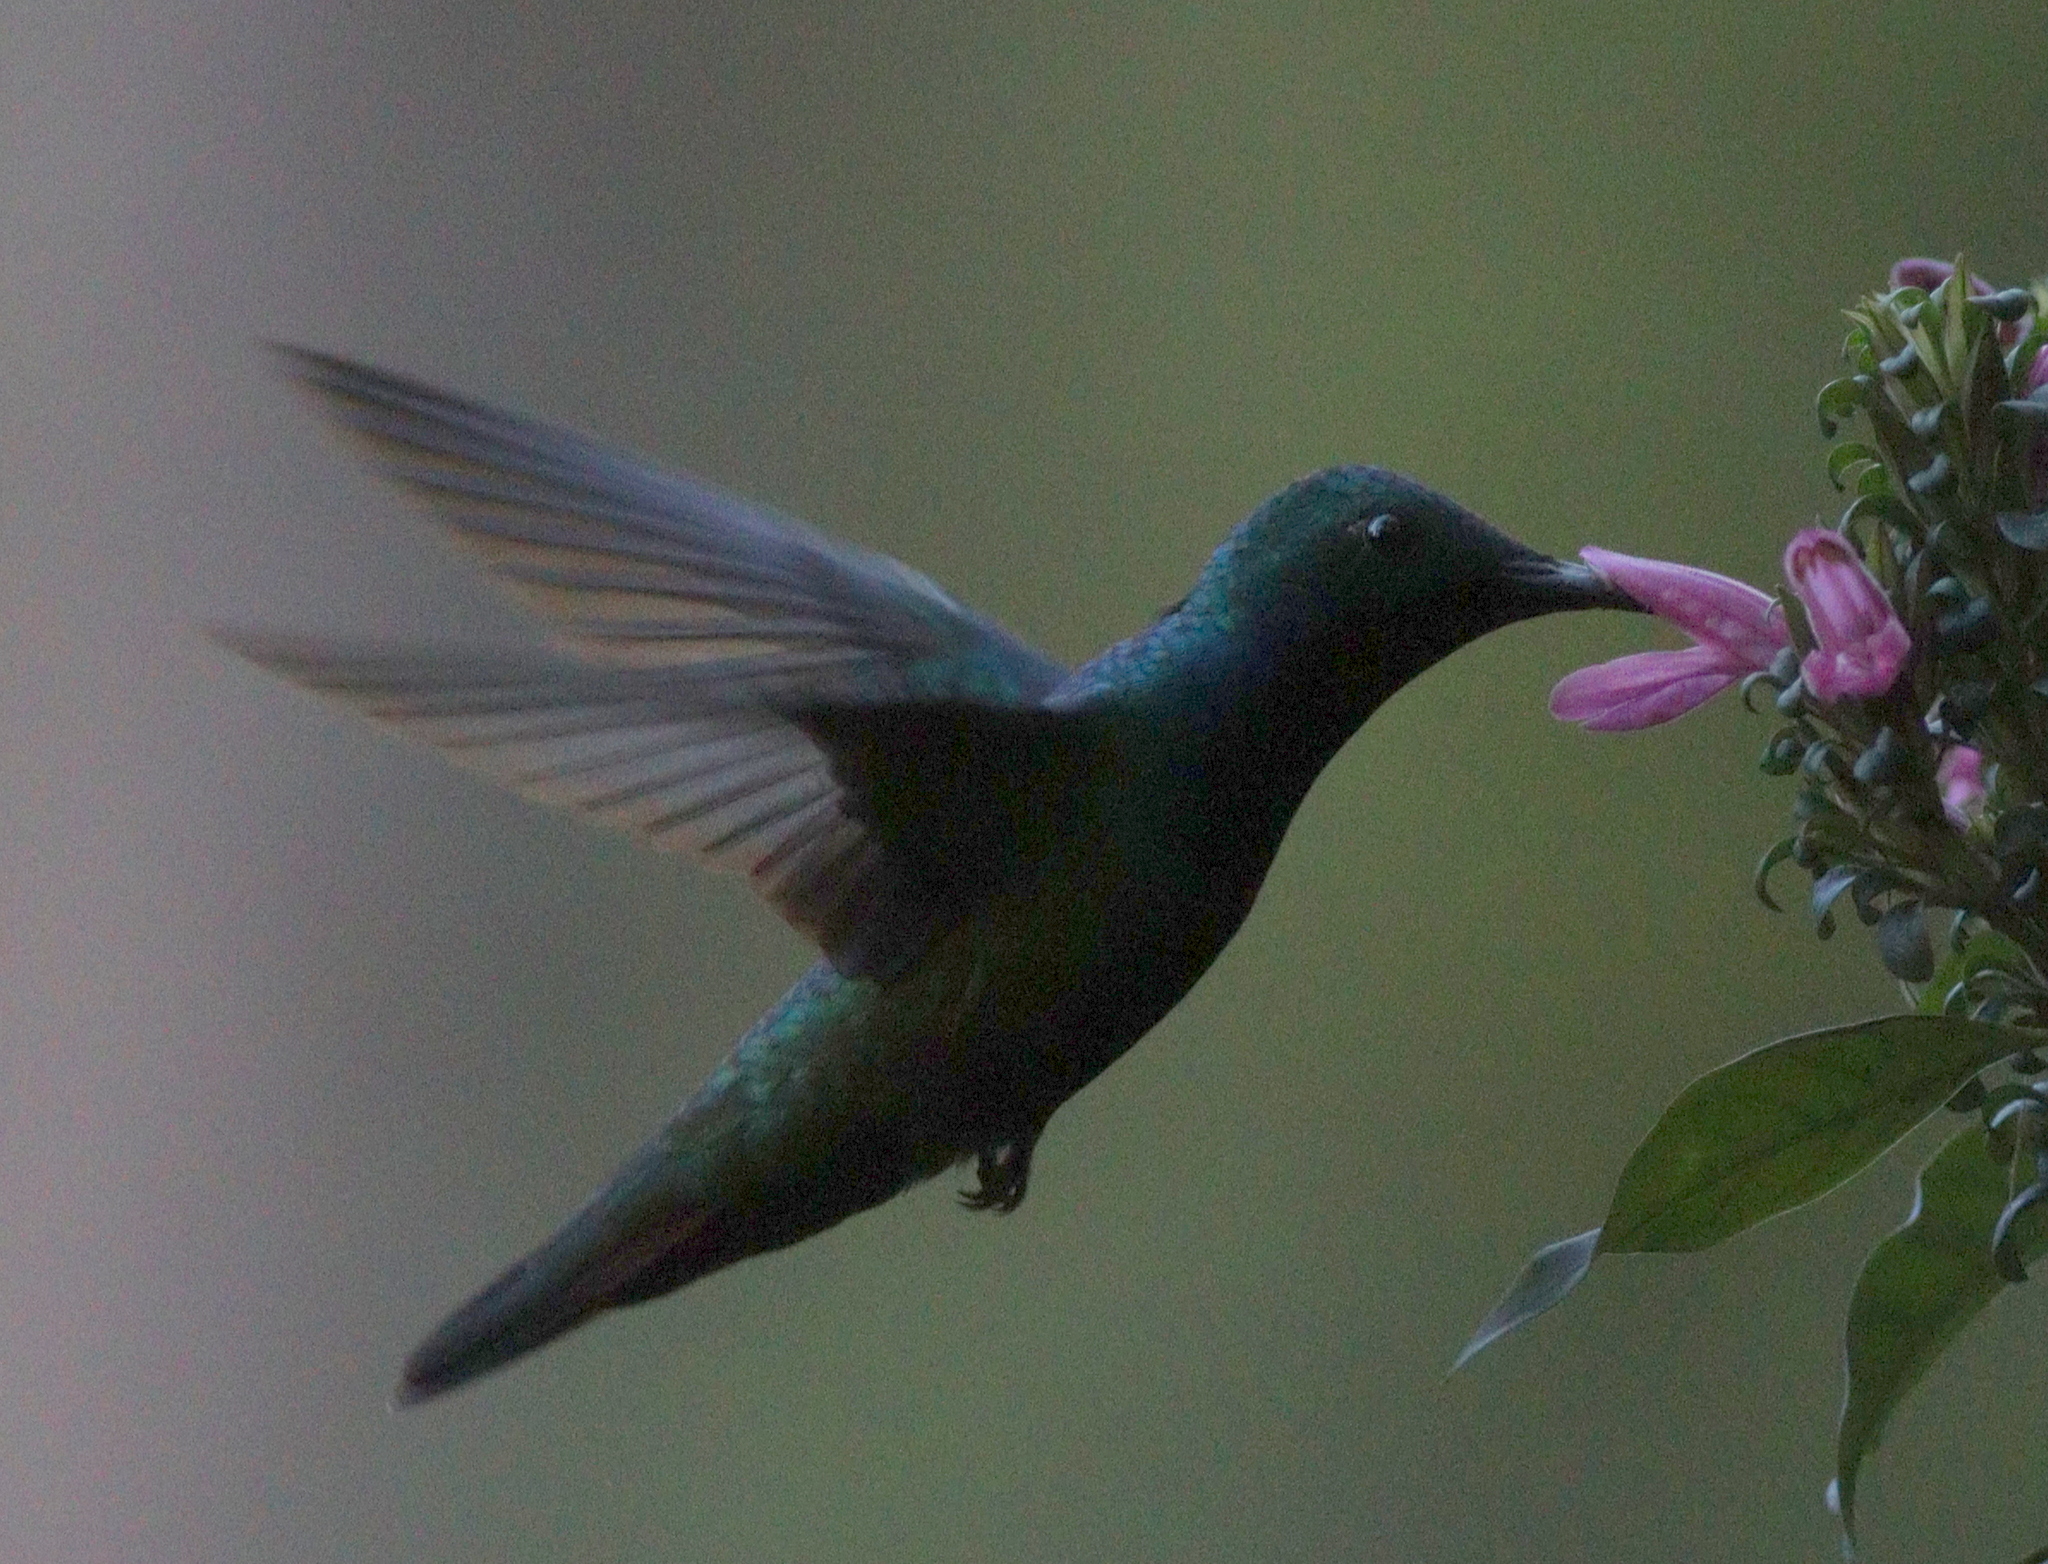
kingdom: Animalia
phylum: Chordata
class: Aves
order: Apodiformes
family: Trochilidae
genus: Anthracothorax
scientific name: Anthracothorax nigricollis
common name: Black-throated mango
